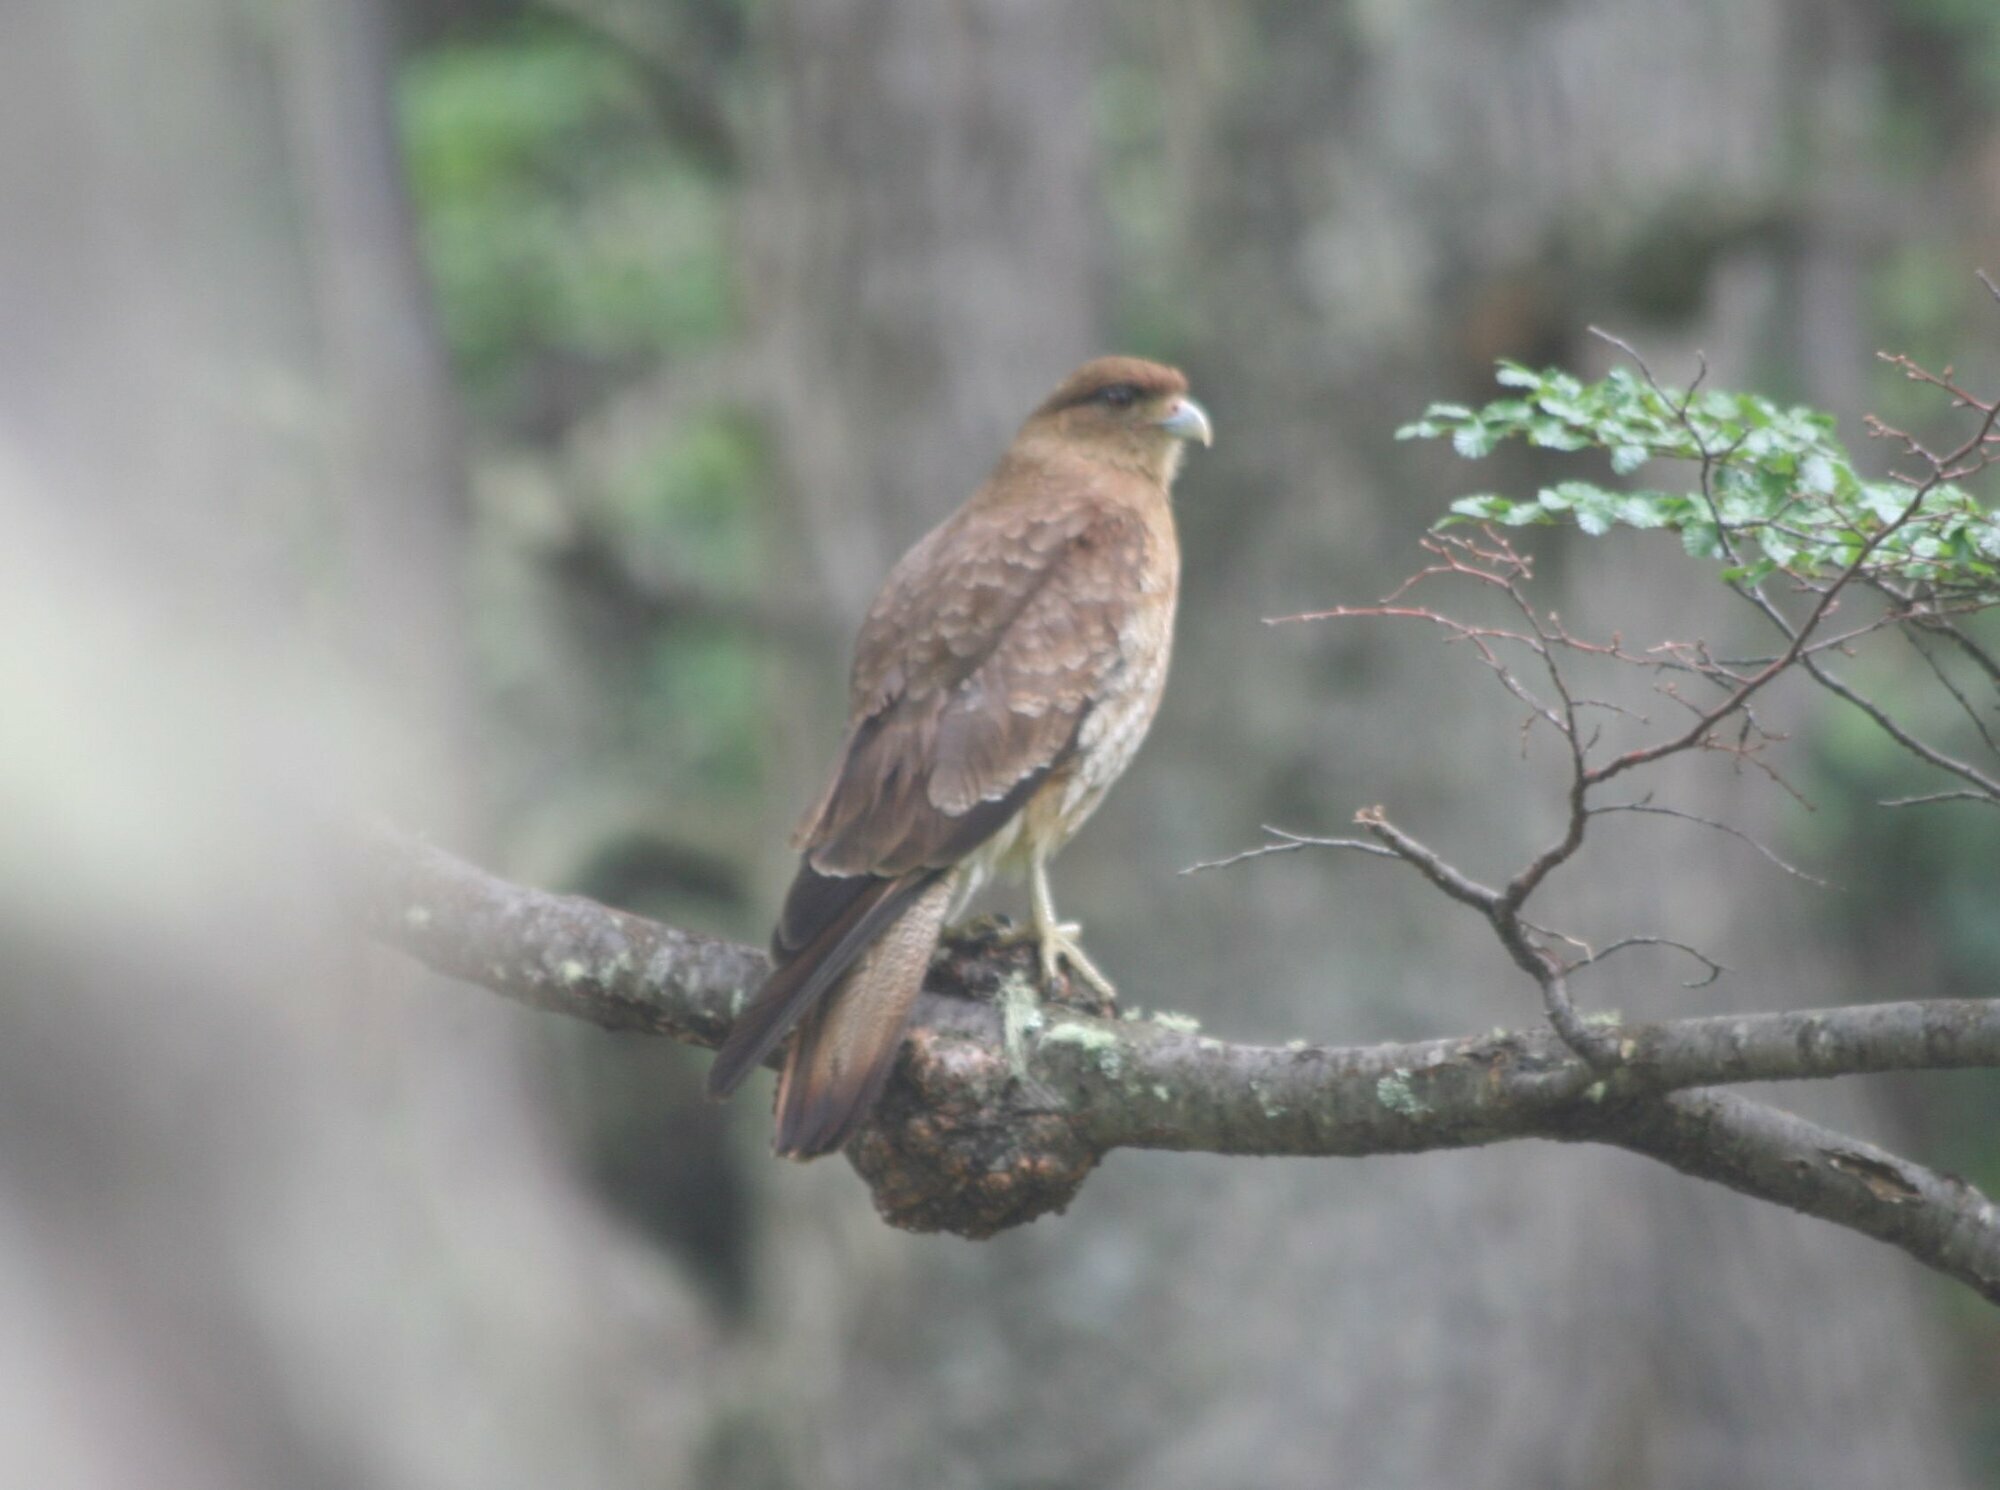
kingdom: Animalia
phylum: Chordata
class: Aves
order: Falconiformes
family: Falconidae
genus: Daptrius
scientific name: Daptrius
